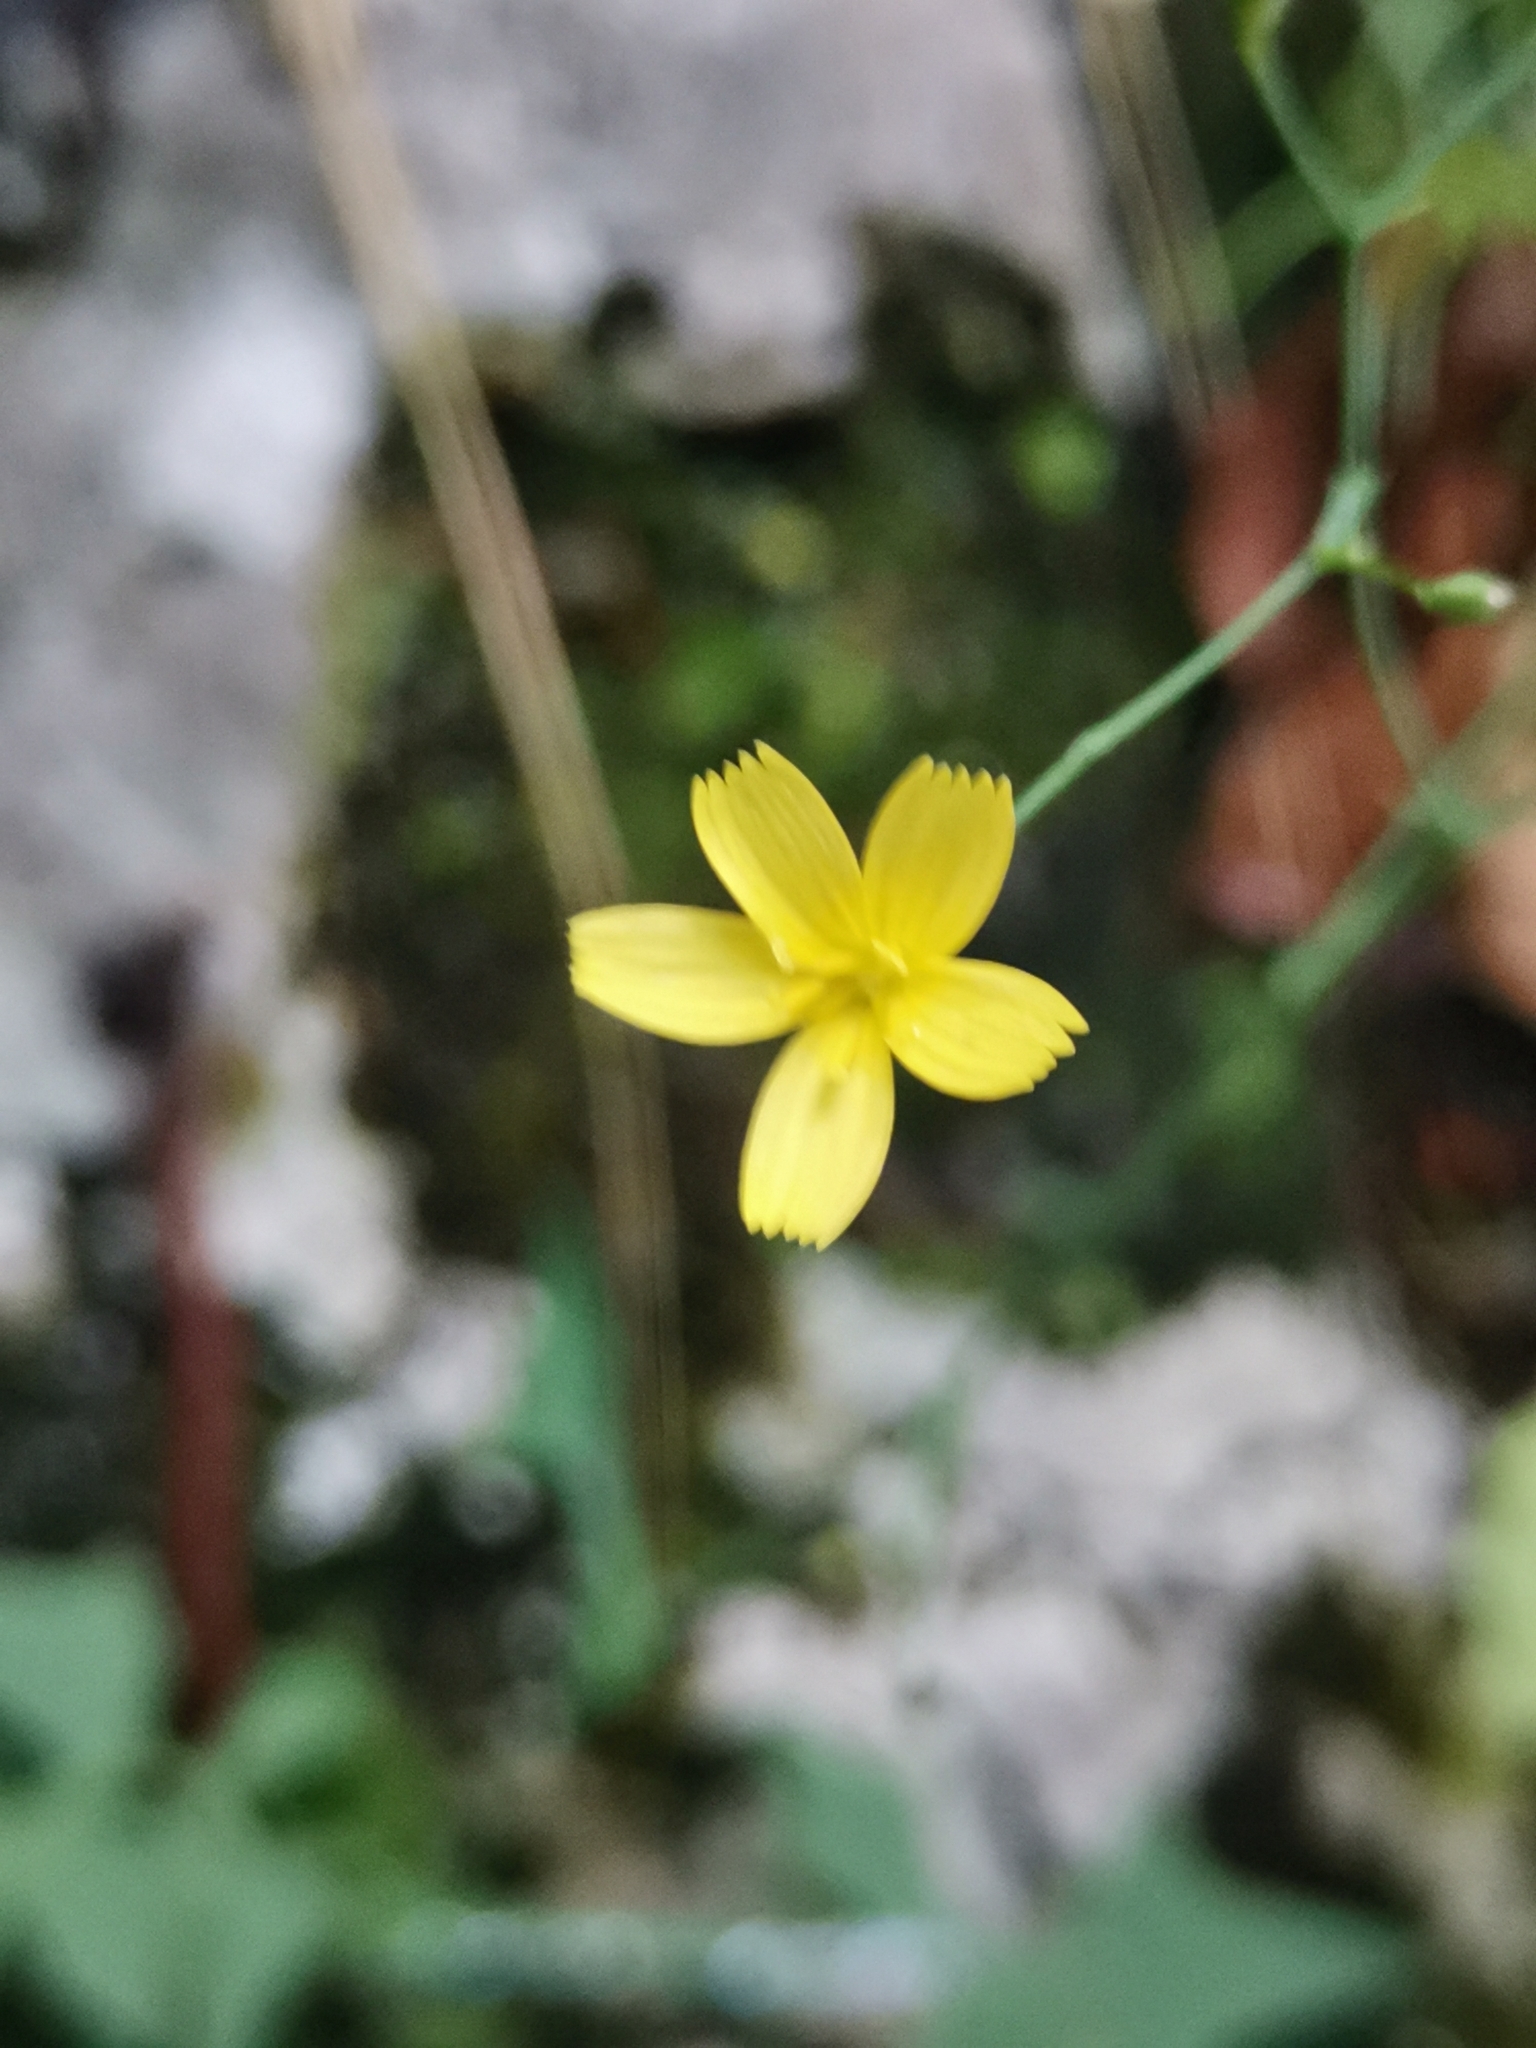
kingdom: Plantae
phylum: Tracheophyta
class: Magnoliopsida
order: Asterales
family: Asteraceae
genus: Mycelis
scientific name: Mycelis muralis
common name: Wall lettuce
